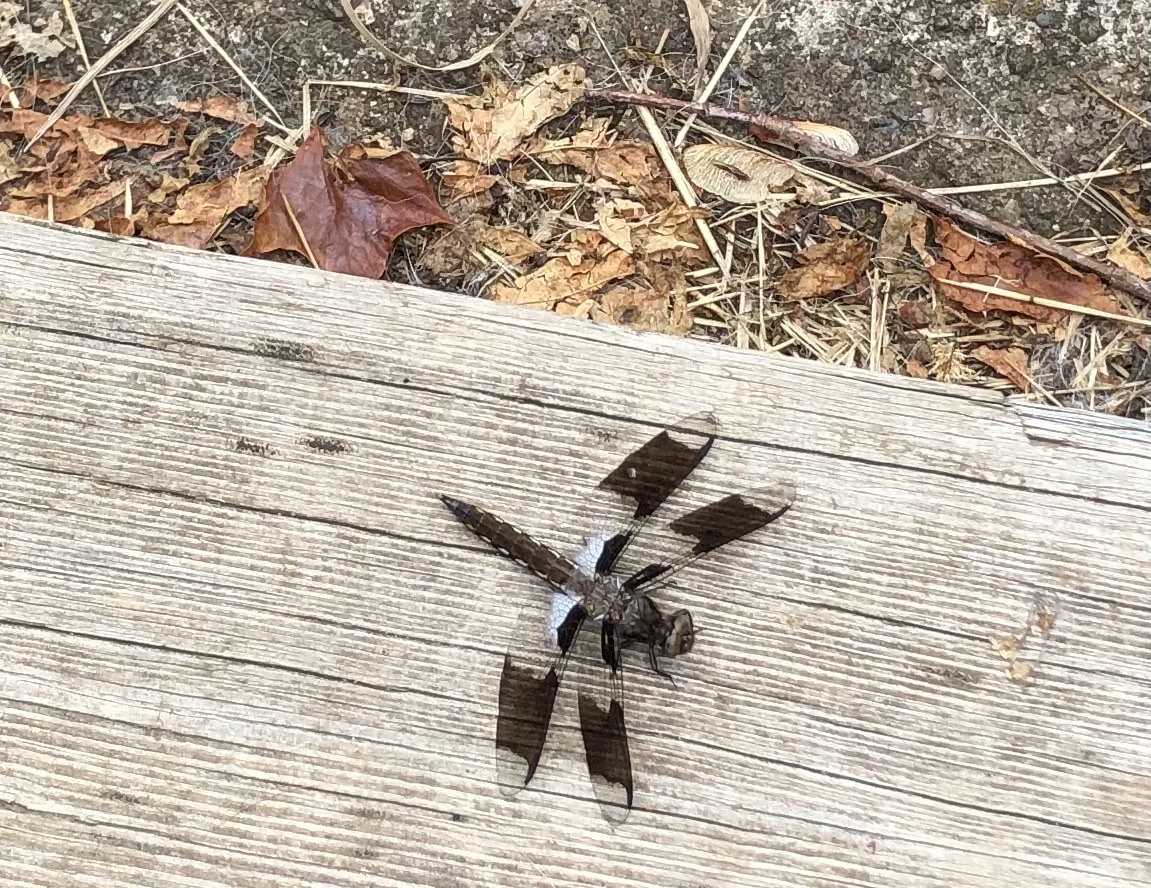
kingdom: Animalia
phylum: Arthropoda
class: Insecta
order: Odonata
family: Libellulidae
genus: Plathemis
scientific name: Plathemis lydia
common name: Common whitetail
